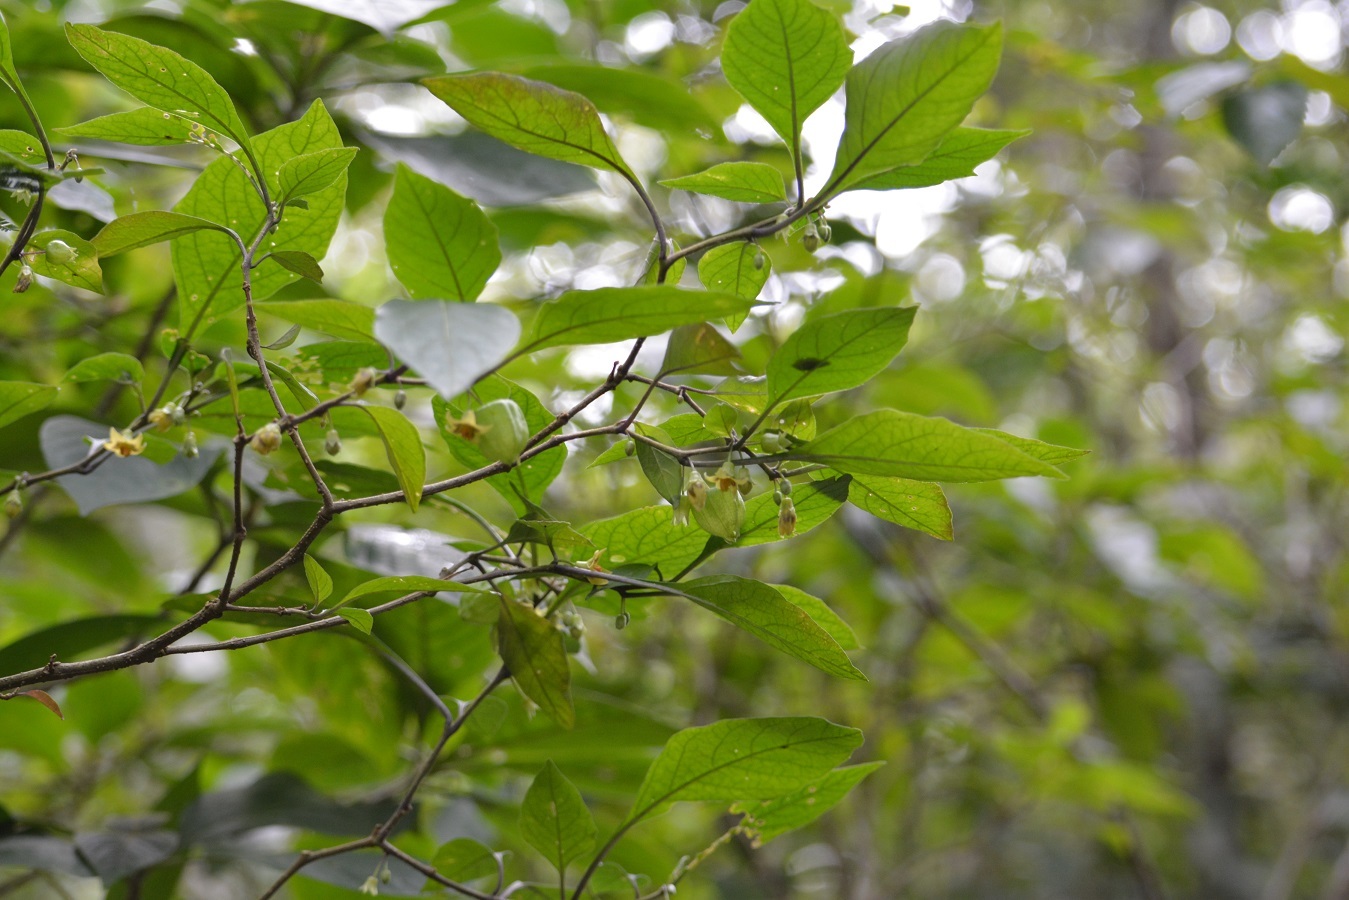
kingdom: Plantae
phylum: Tracheophyta
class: Magnoliopsida
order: Solanales
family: Solanaceae
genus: Physalis
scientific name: Physalis campechiana
